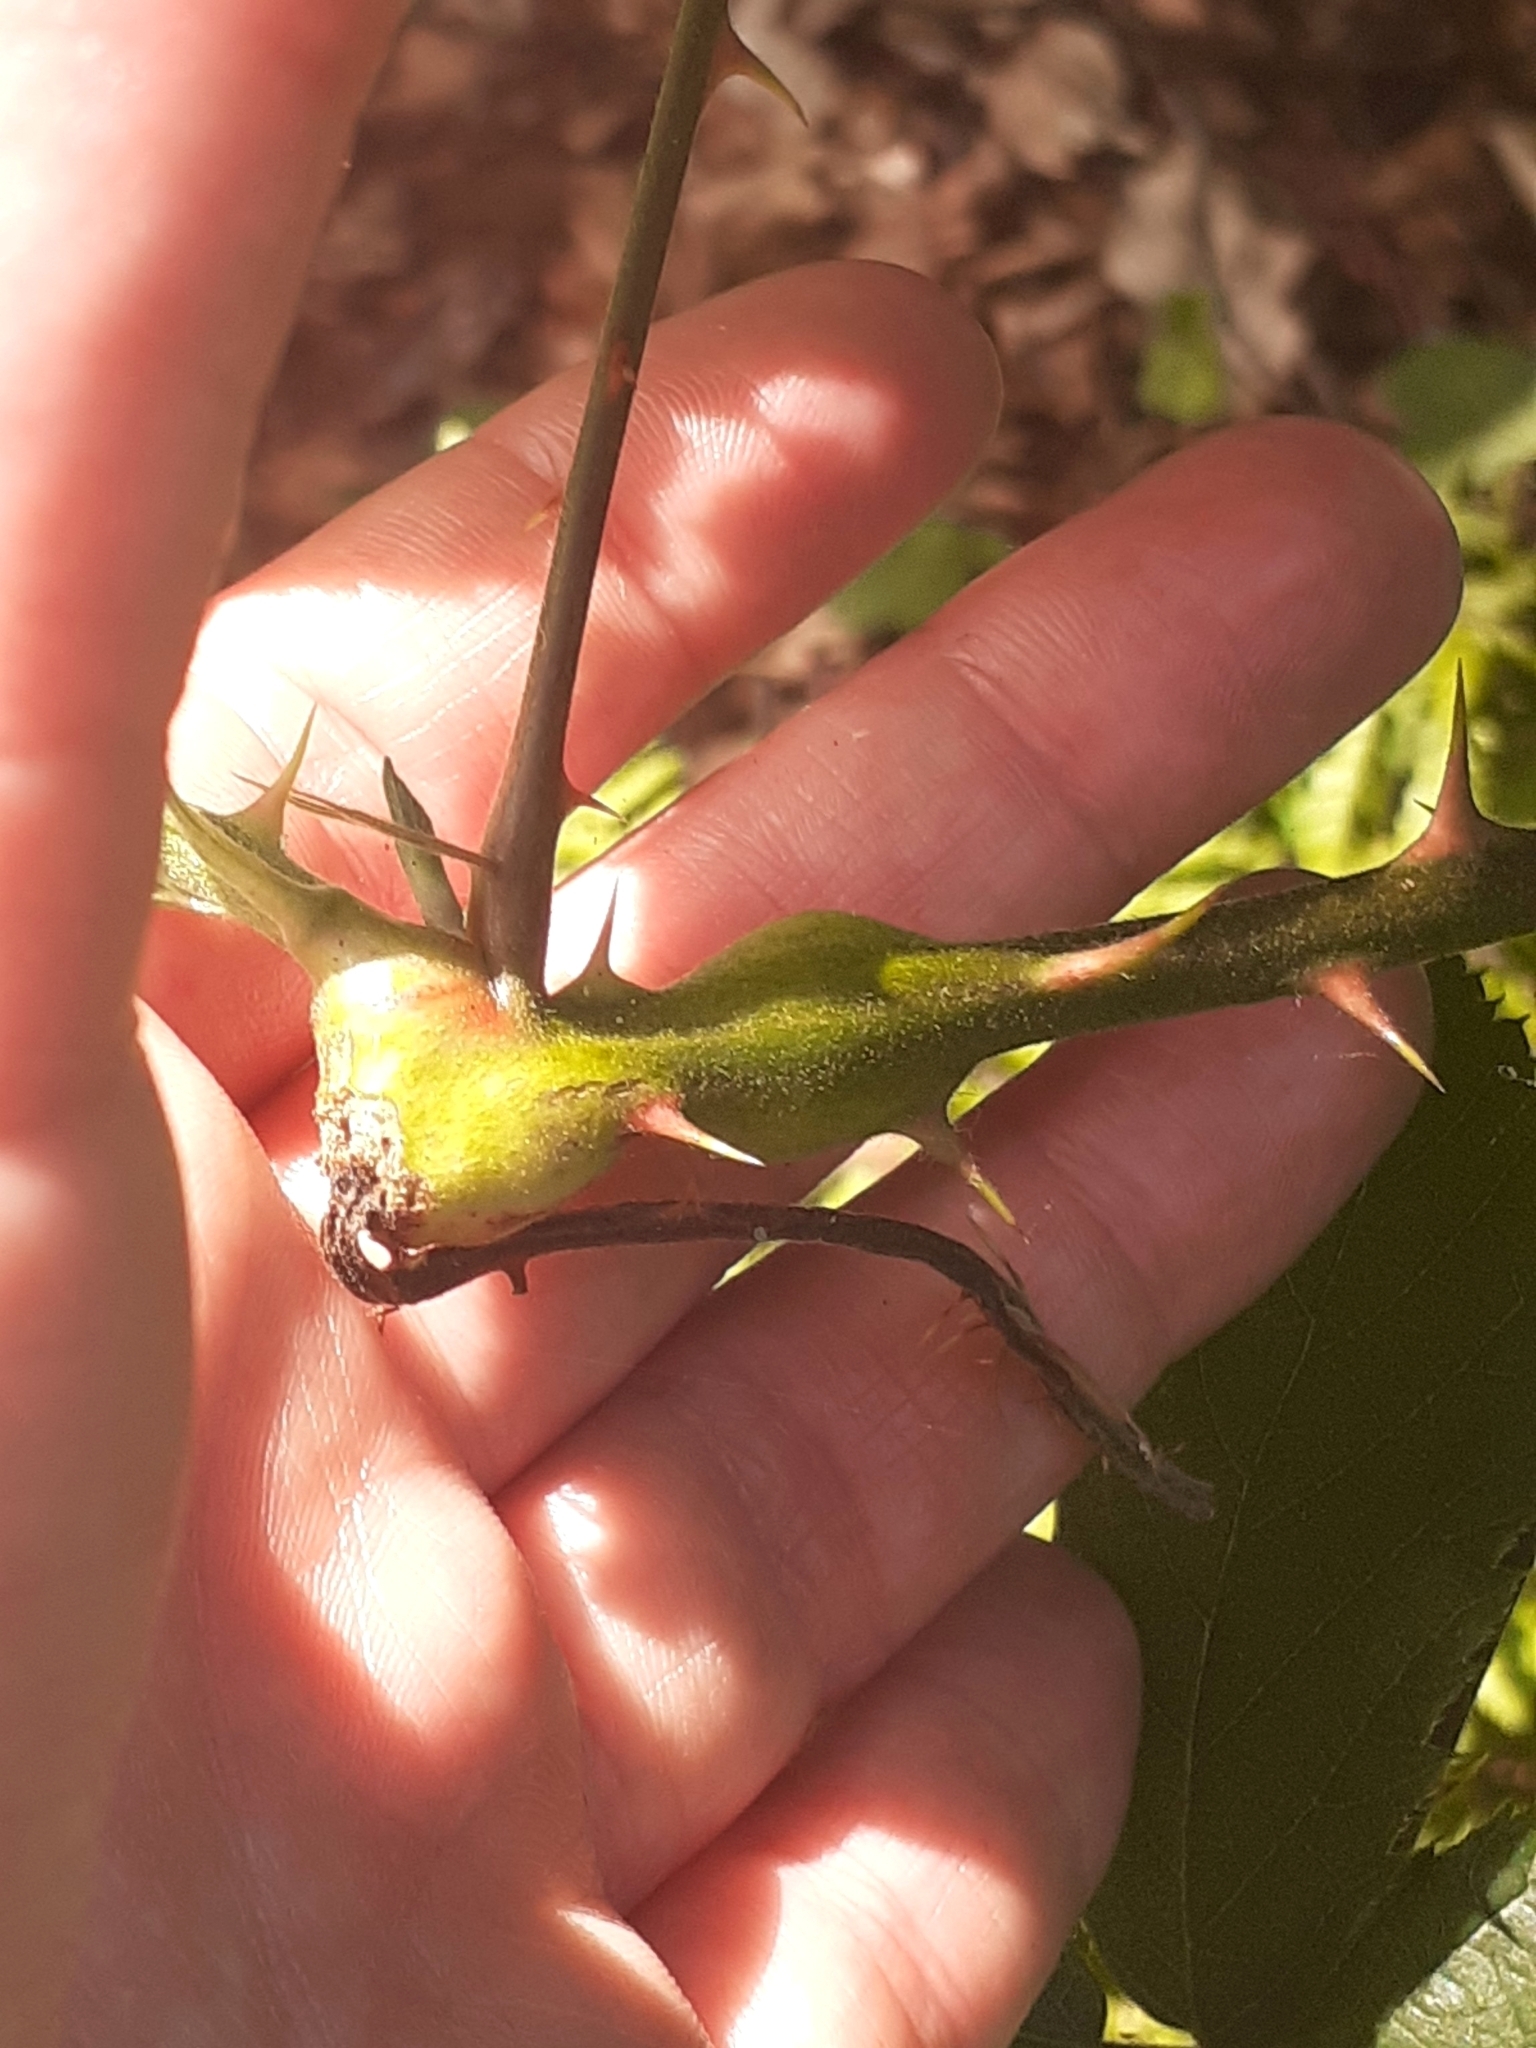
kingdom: Animalia
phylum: Arthropoda
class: Insecta
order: Hymenoptera
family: Cynipidae
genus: Diastrophus
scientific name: Diastrophus rubi
